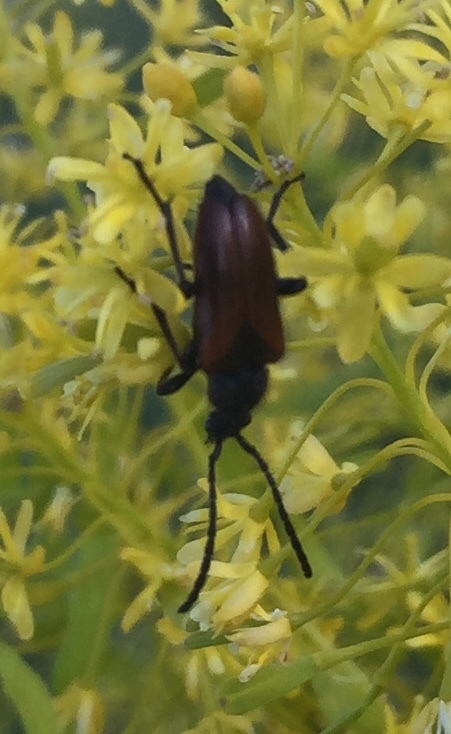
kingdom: Animalia
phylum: Arthropoda
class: Insecta
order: Coleoptera
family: Cerambycidae
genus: Pseudovadonia
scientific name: Pseudovadonia livida
